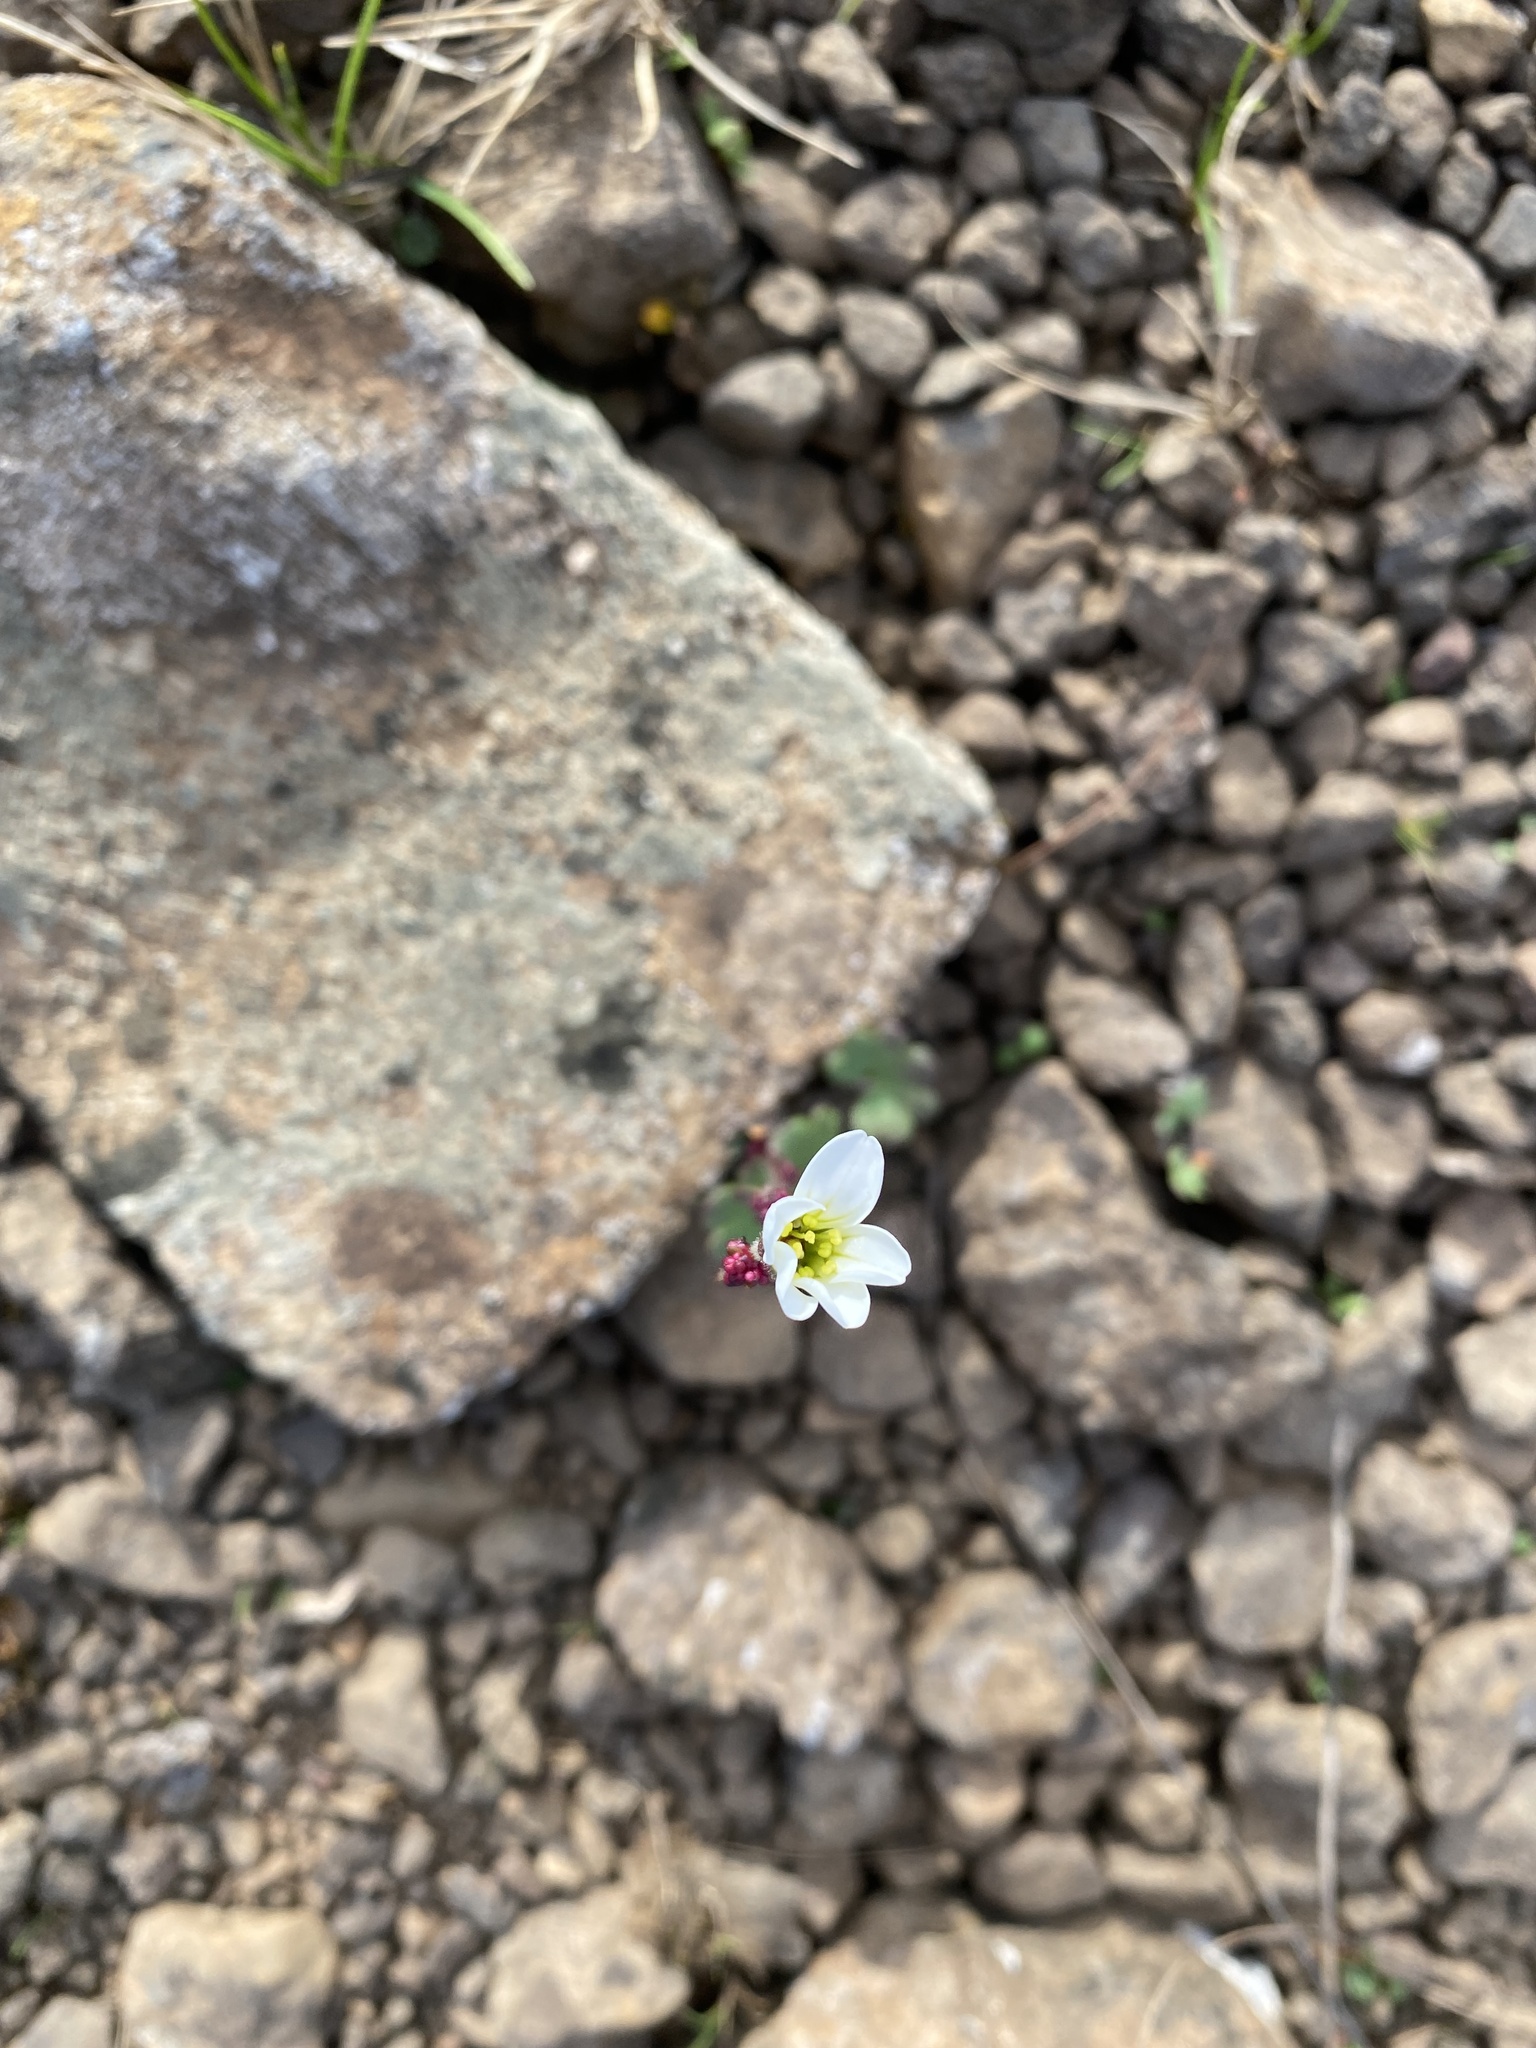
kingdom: Plantae
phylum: Tracheophyta
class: Magnoliopsida
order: Saxifragales
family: Saxifragaceae
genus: Saxifraga
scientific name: Saxifraga cernua
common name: Drooping saxifrage
